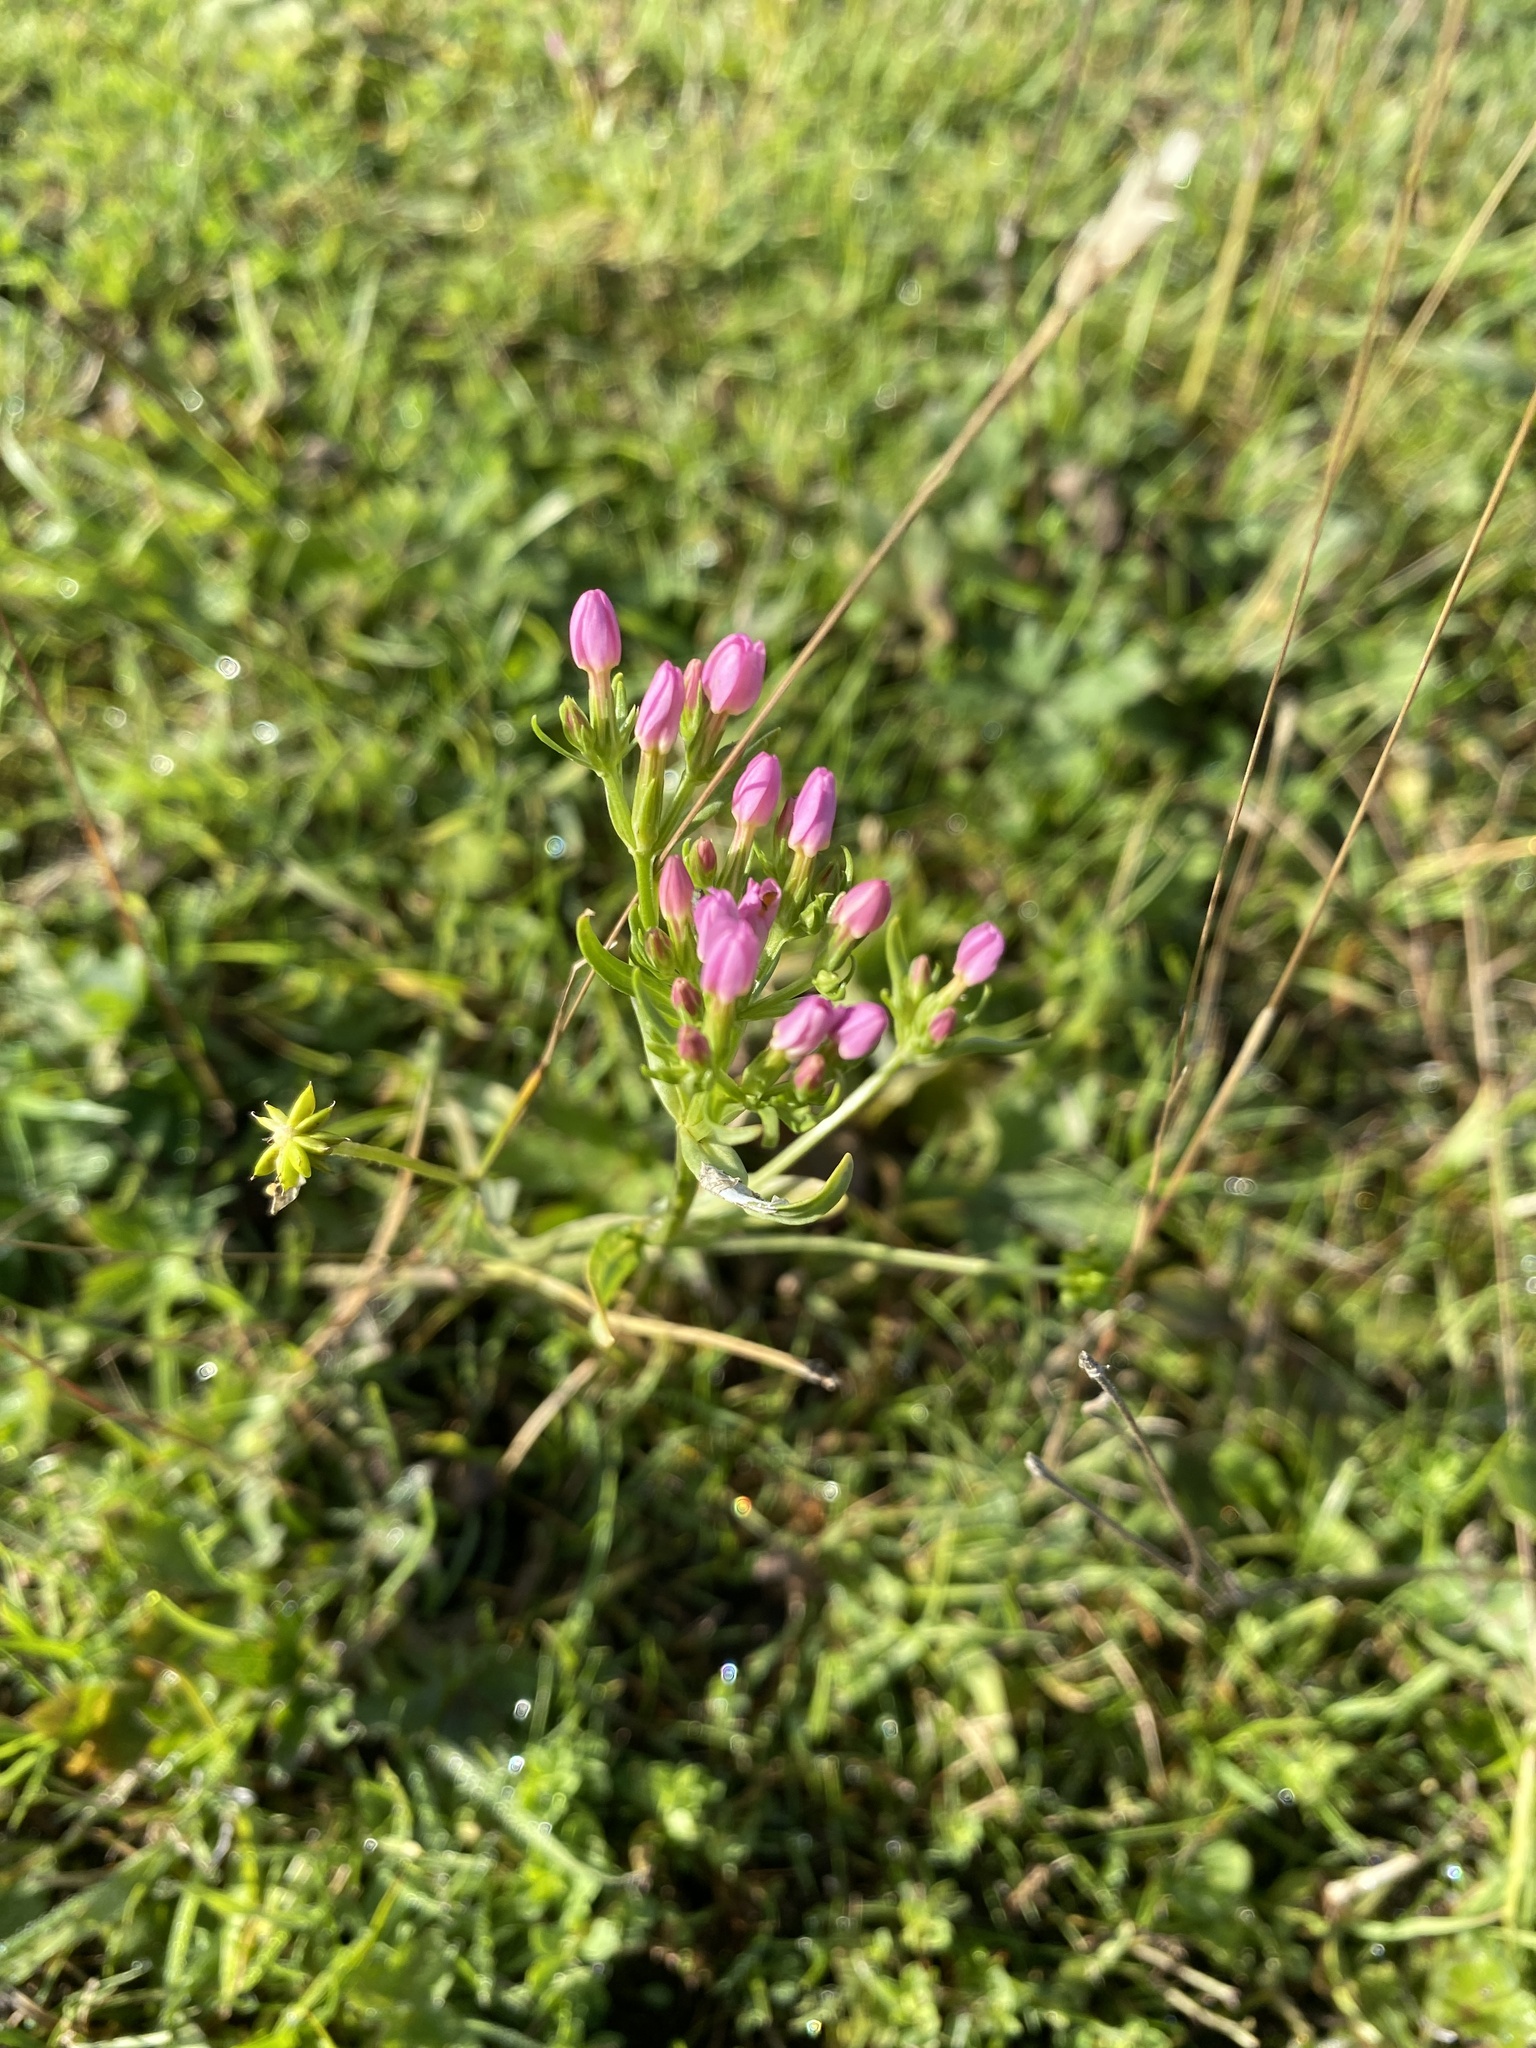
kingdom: Plantae
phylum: Tracheophyta
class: Magnoliopsida
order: Gentianales
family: Gentianaceae
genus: Centaurium
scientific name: Centaurium erythraea
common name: Common centaury
